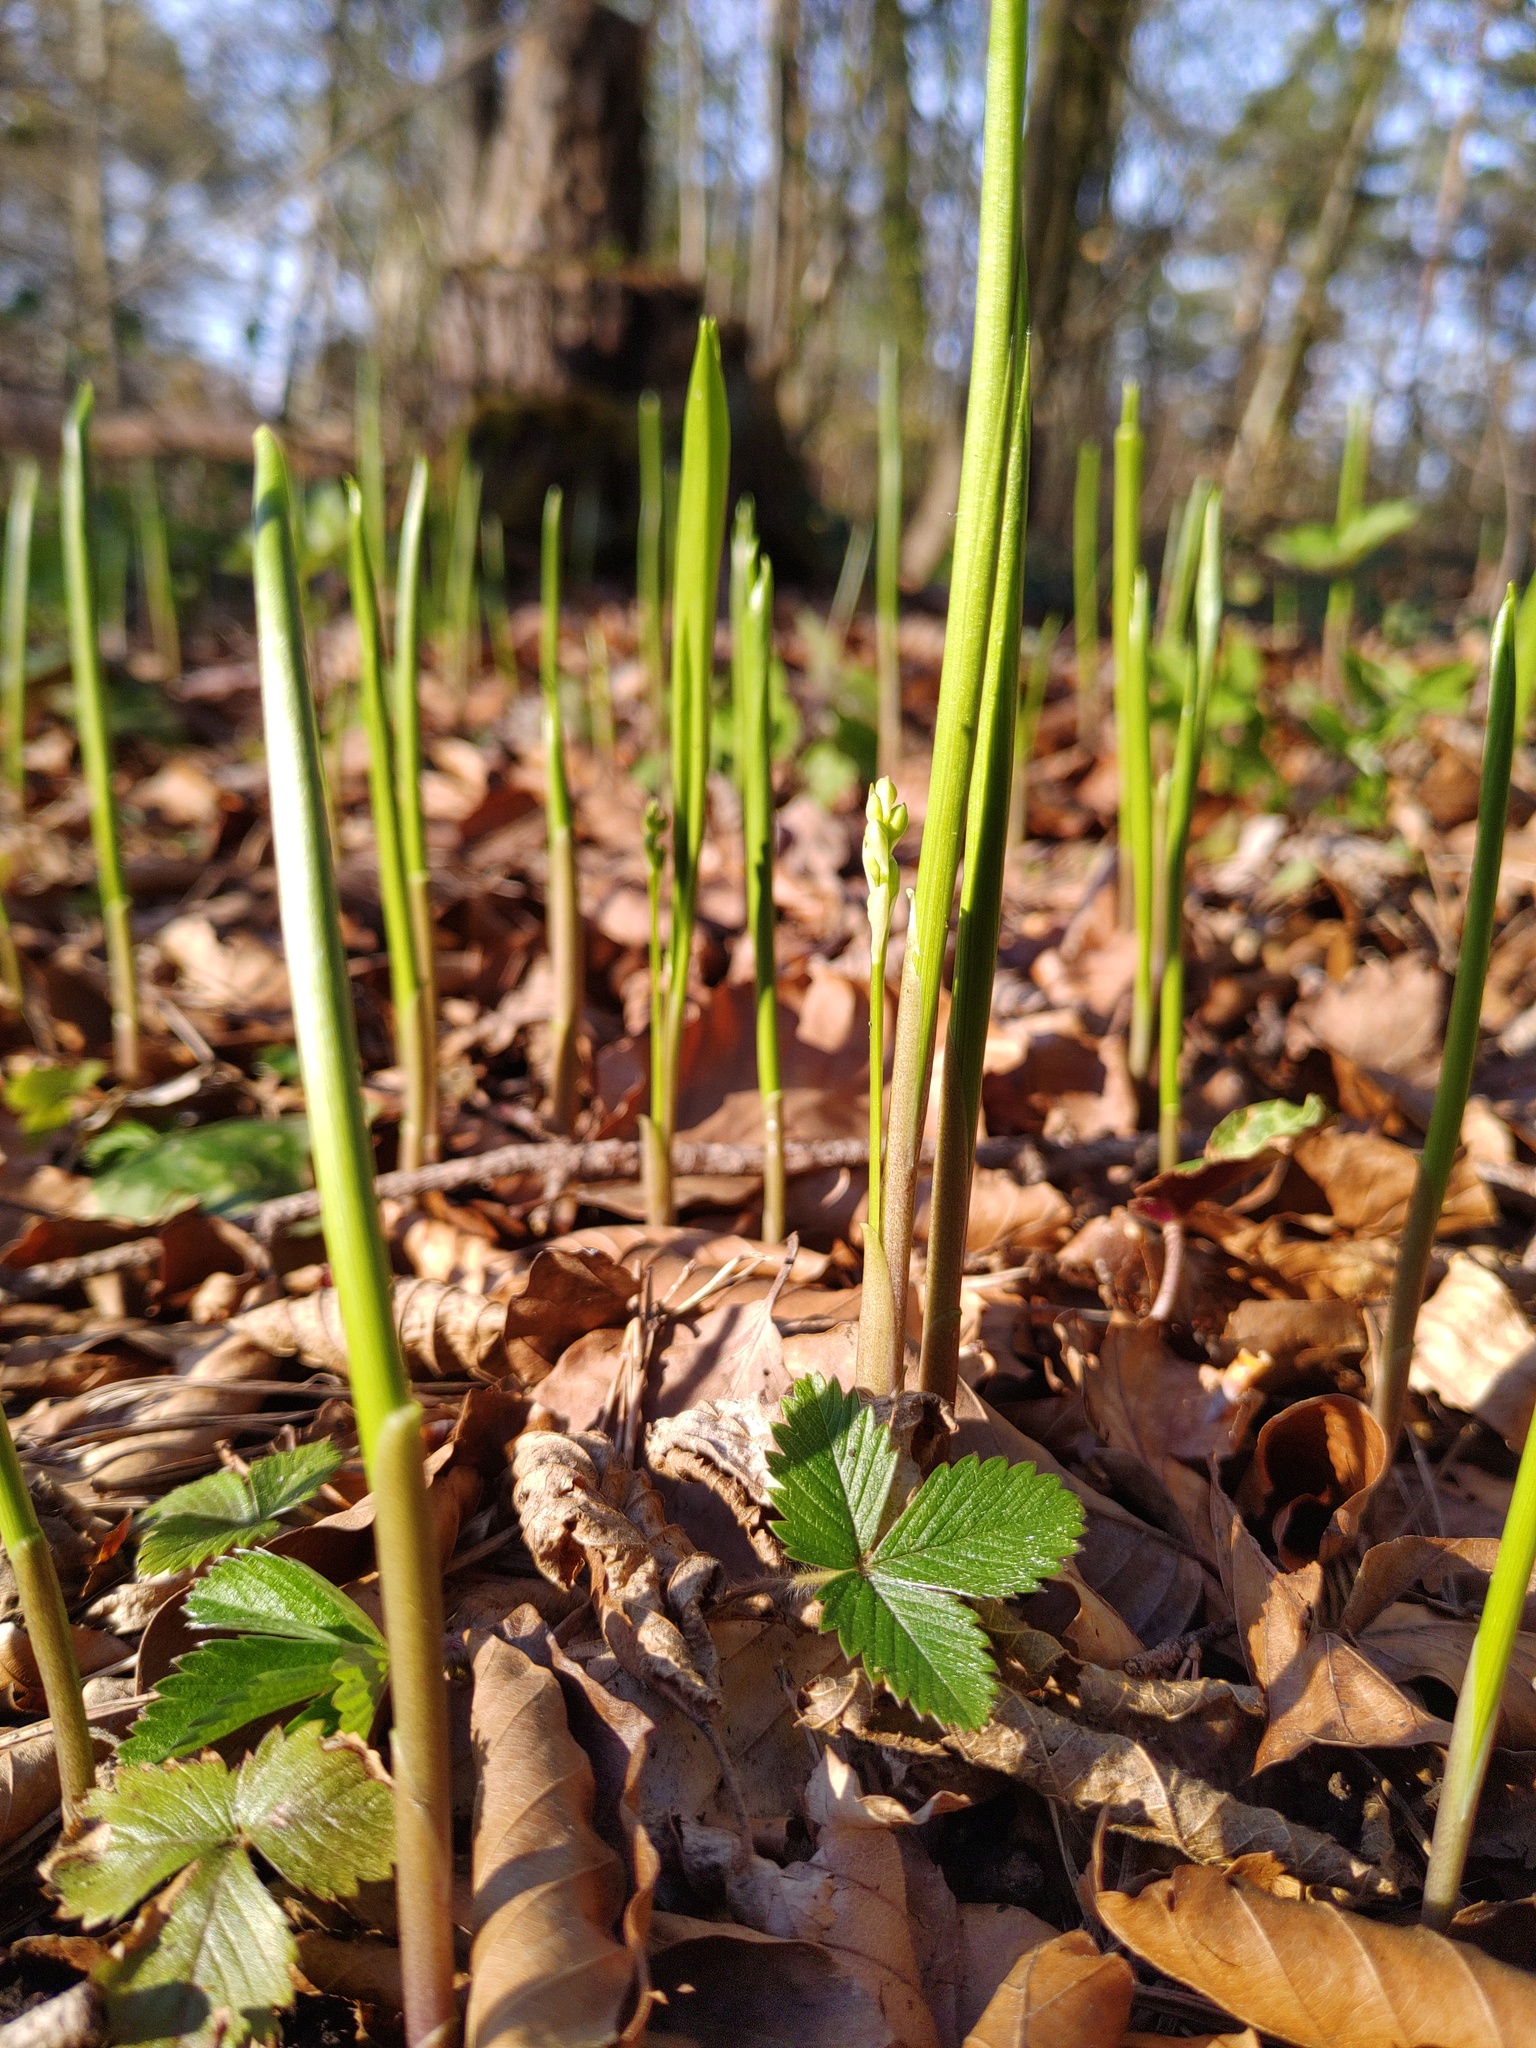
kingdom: Plantae
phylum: Tracheophyta
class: Liliopsida
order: Asparagales
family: Asparagaceae
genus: Convallaria
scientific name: Convallaria majalis
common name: Lily-of-the-valley
